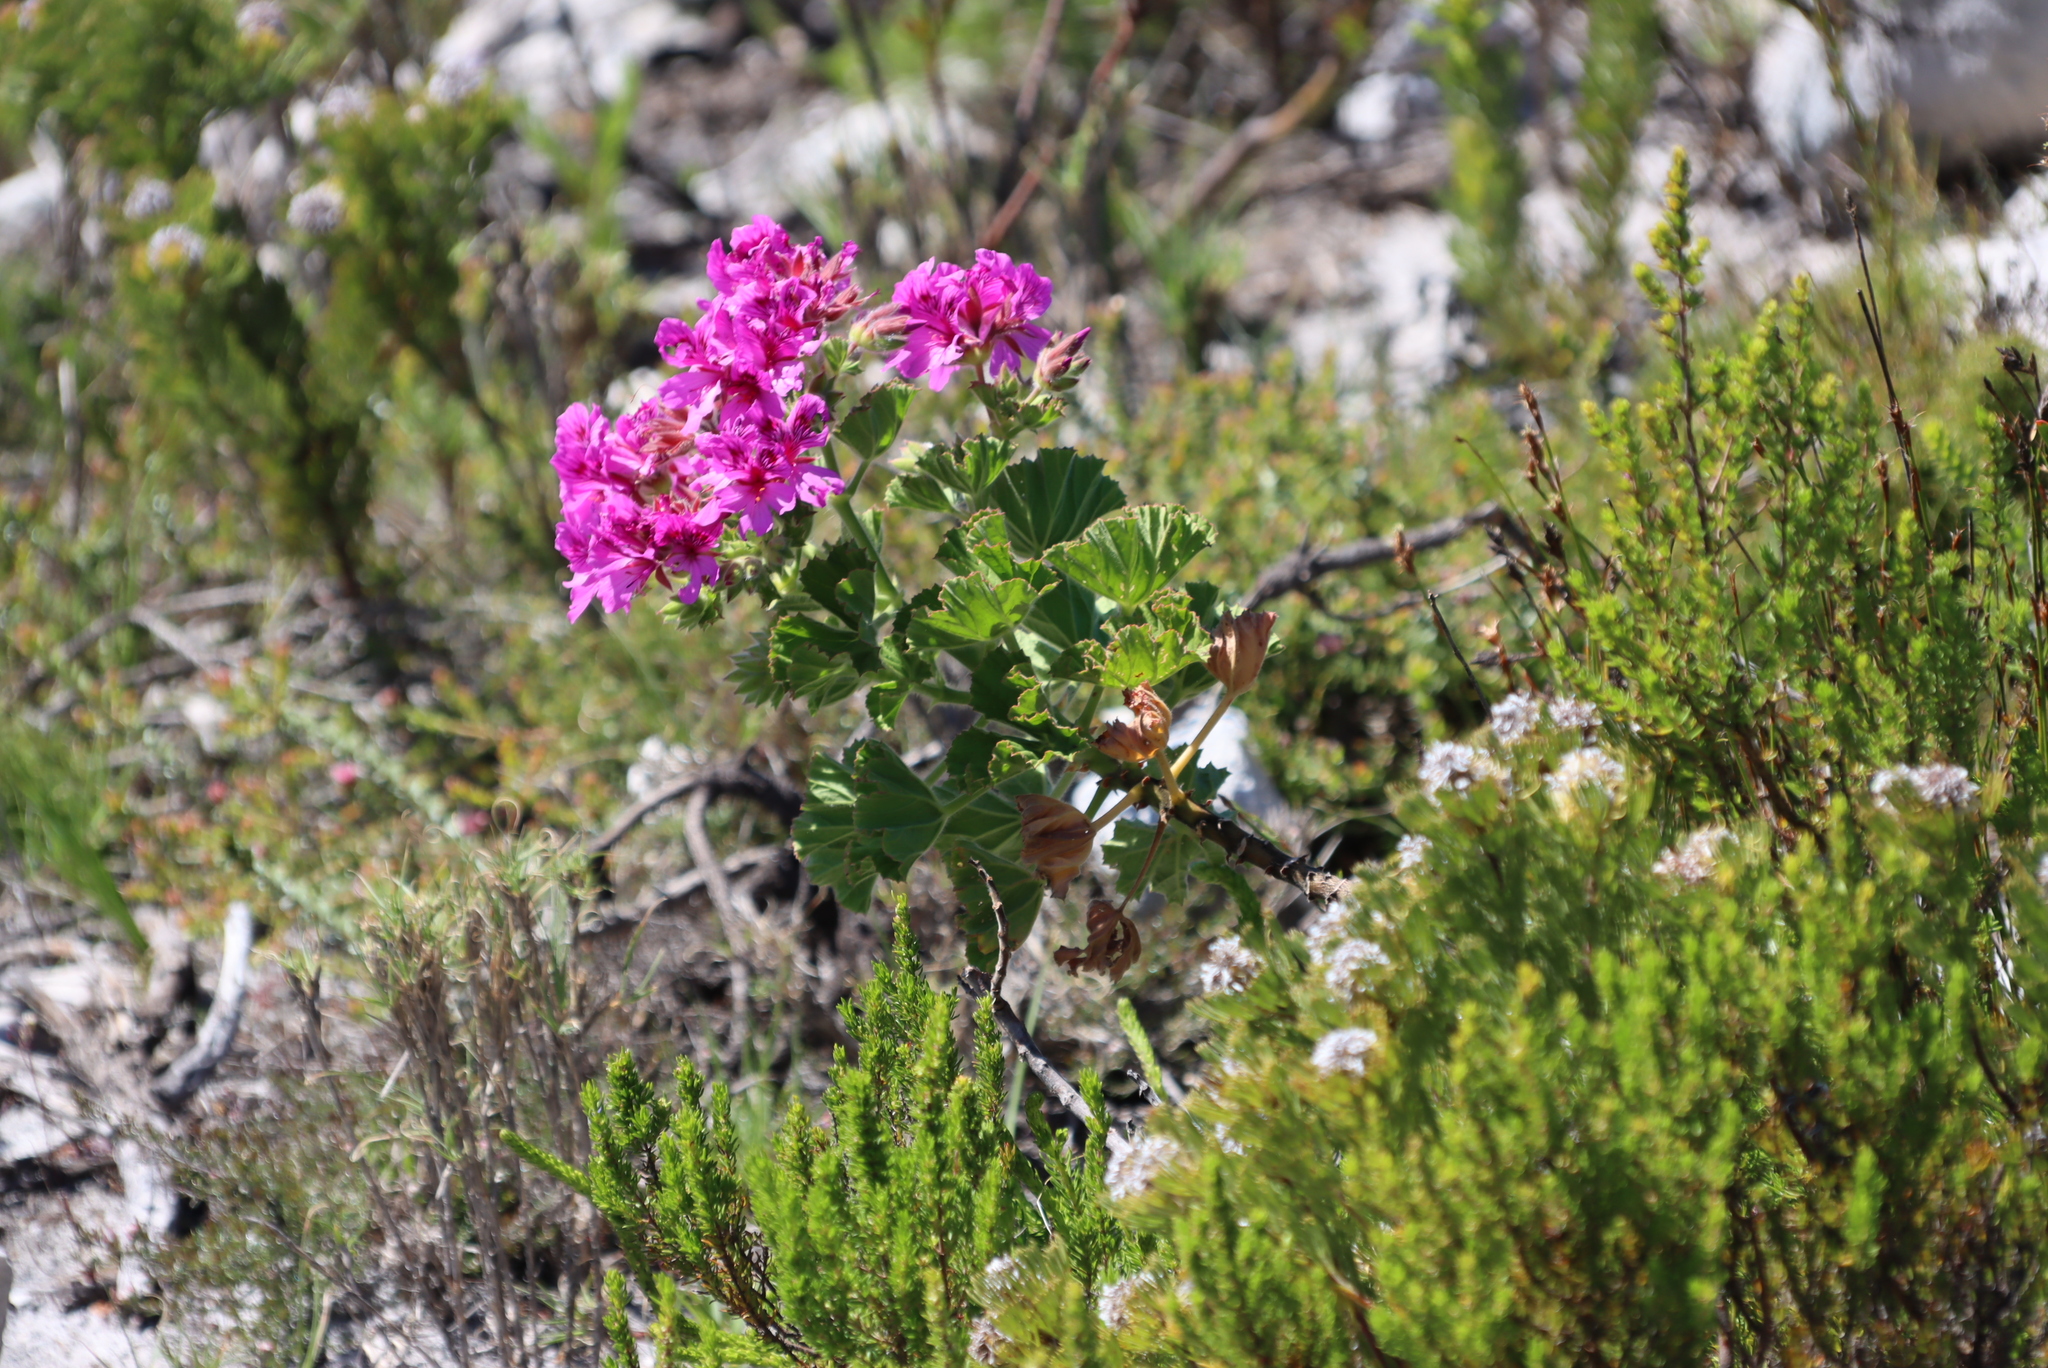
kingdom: Plantae
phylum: Tracheophyta
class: Magnoliopsida
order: Geraniales
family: Geraniaceae
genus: Pelargonium
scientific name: Pelargonium cucullatum
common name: Tree pelargonium
